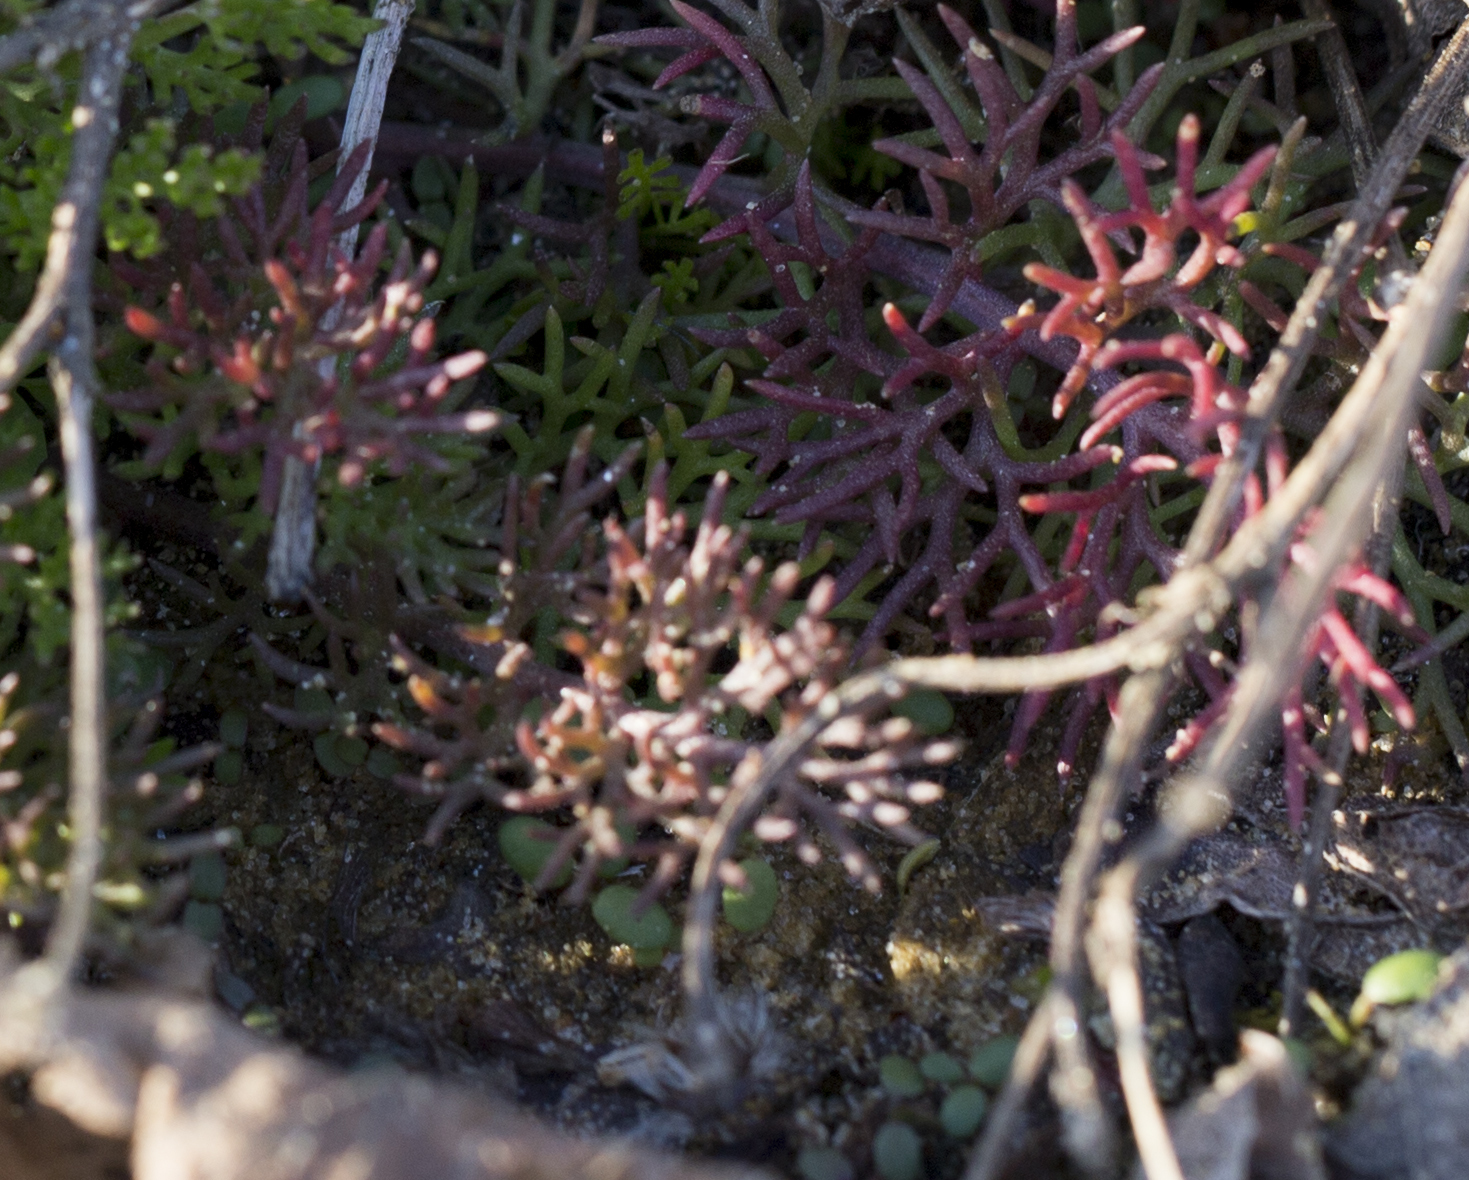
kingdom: Plantae
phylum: Tracheophyta
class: Magnoliopsida
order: Asterales
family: Asteraceae
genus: Tripleurospermum
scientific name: Tripleurospermum inodorum
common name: Scentless mayweed
